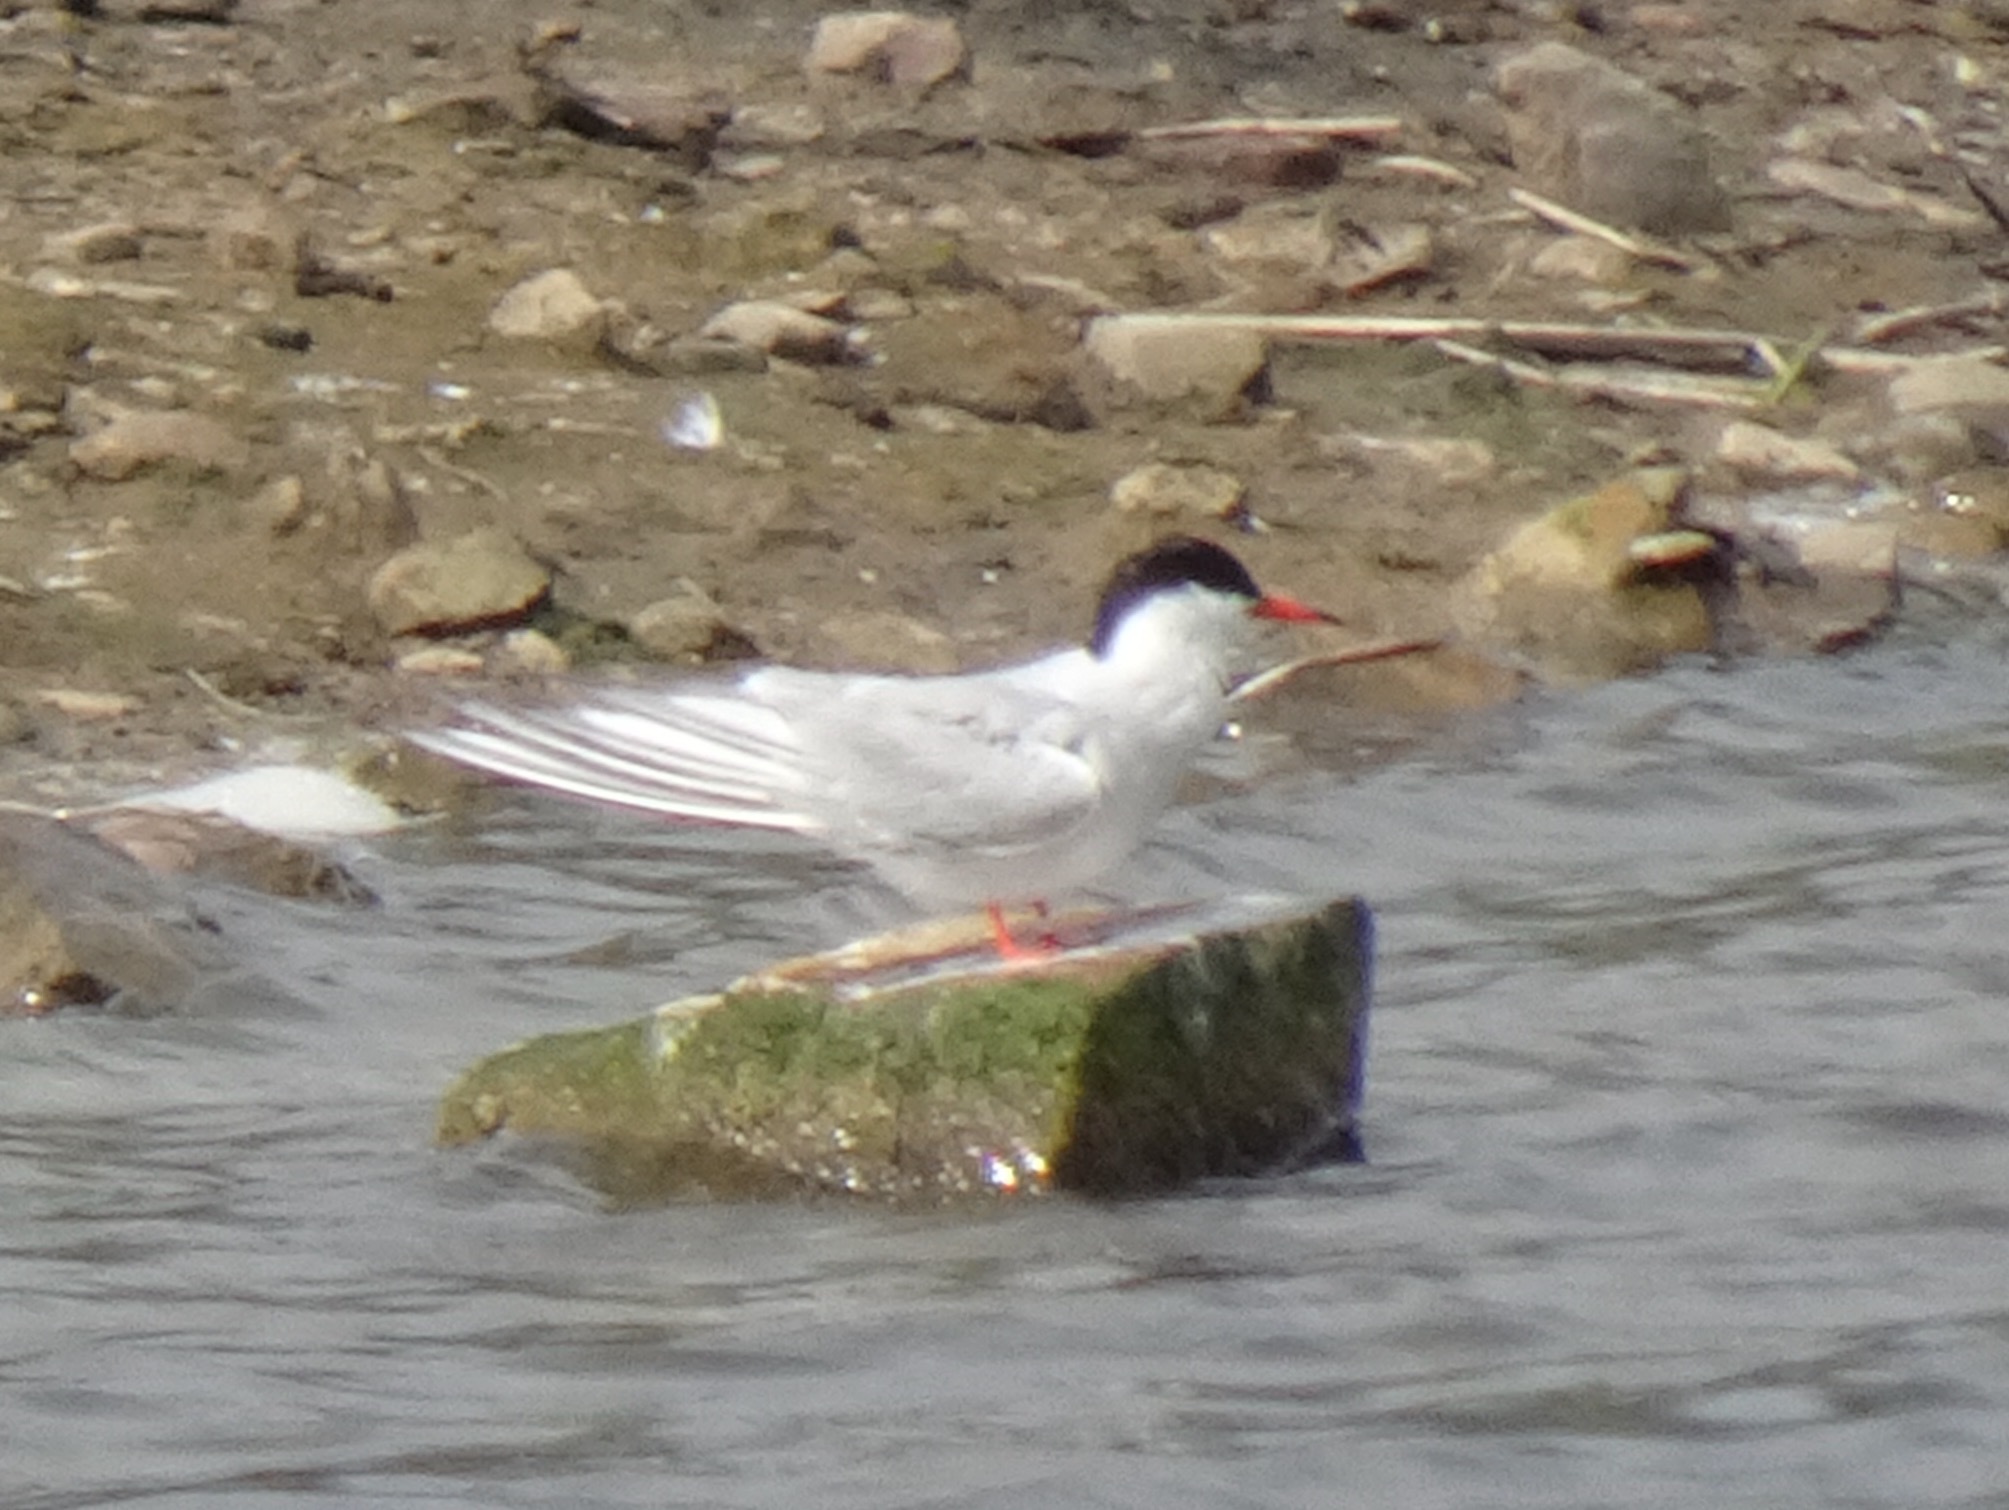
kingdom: Animalia
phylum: Chordata
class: Aves
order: Charadriiformes
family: Laridae
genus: Sterna
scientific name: Sterna hirundo
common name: Common tern
